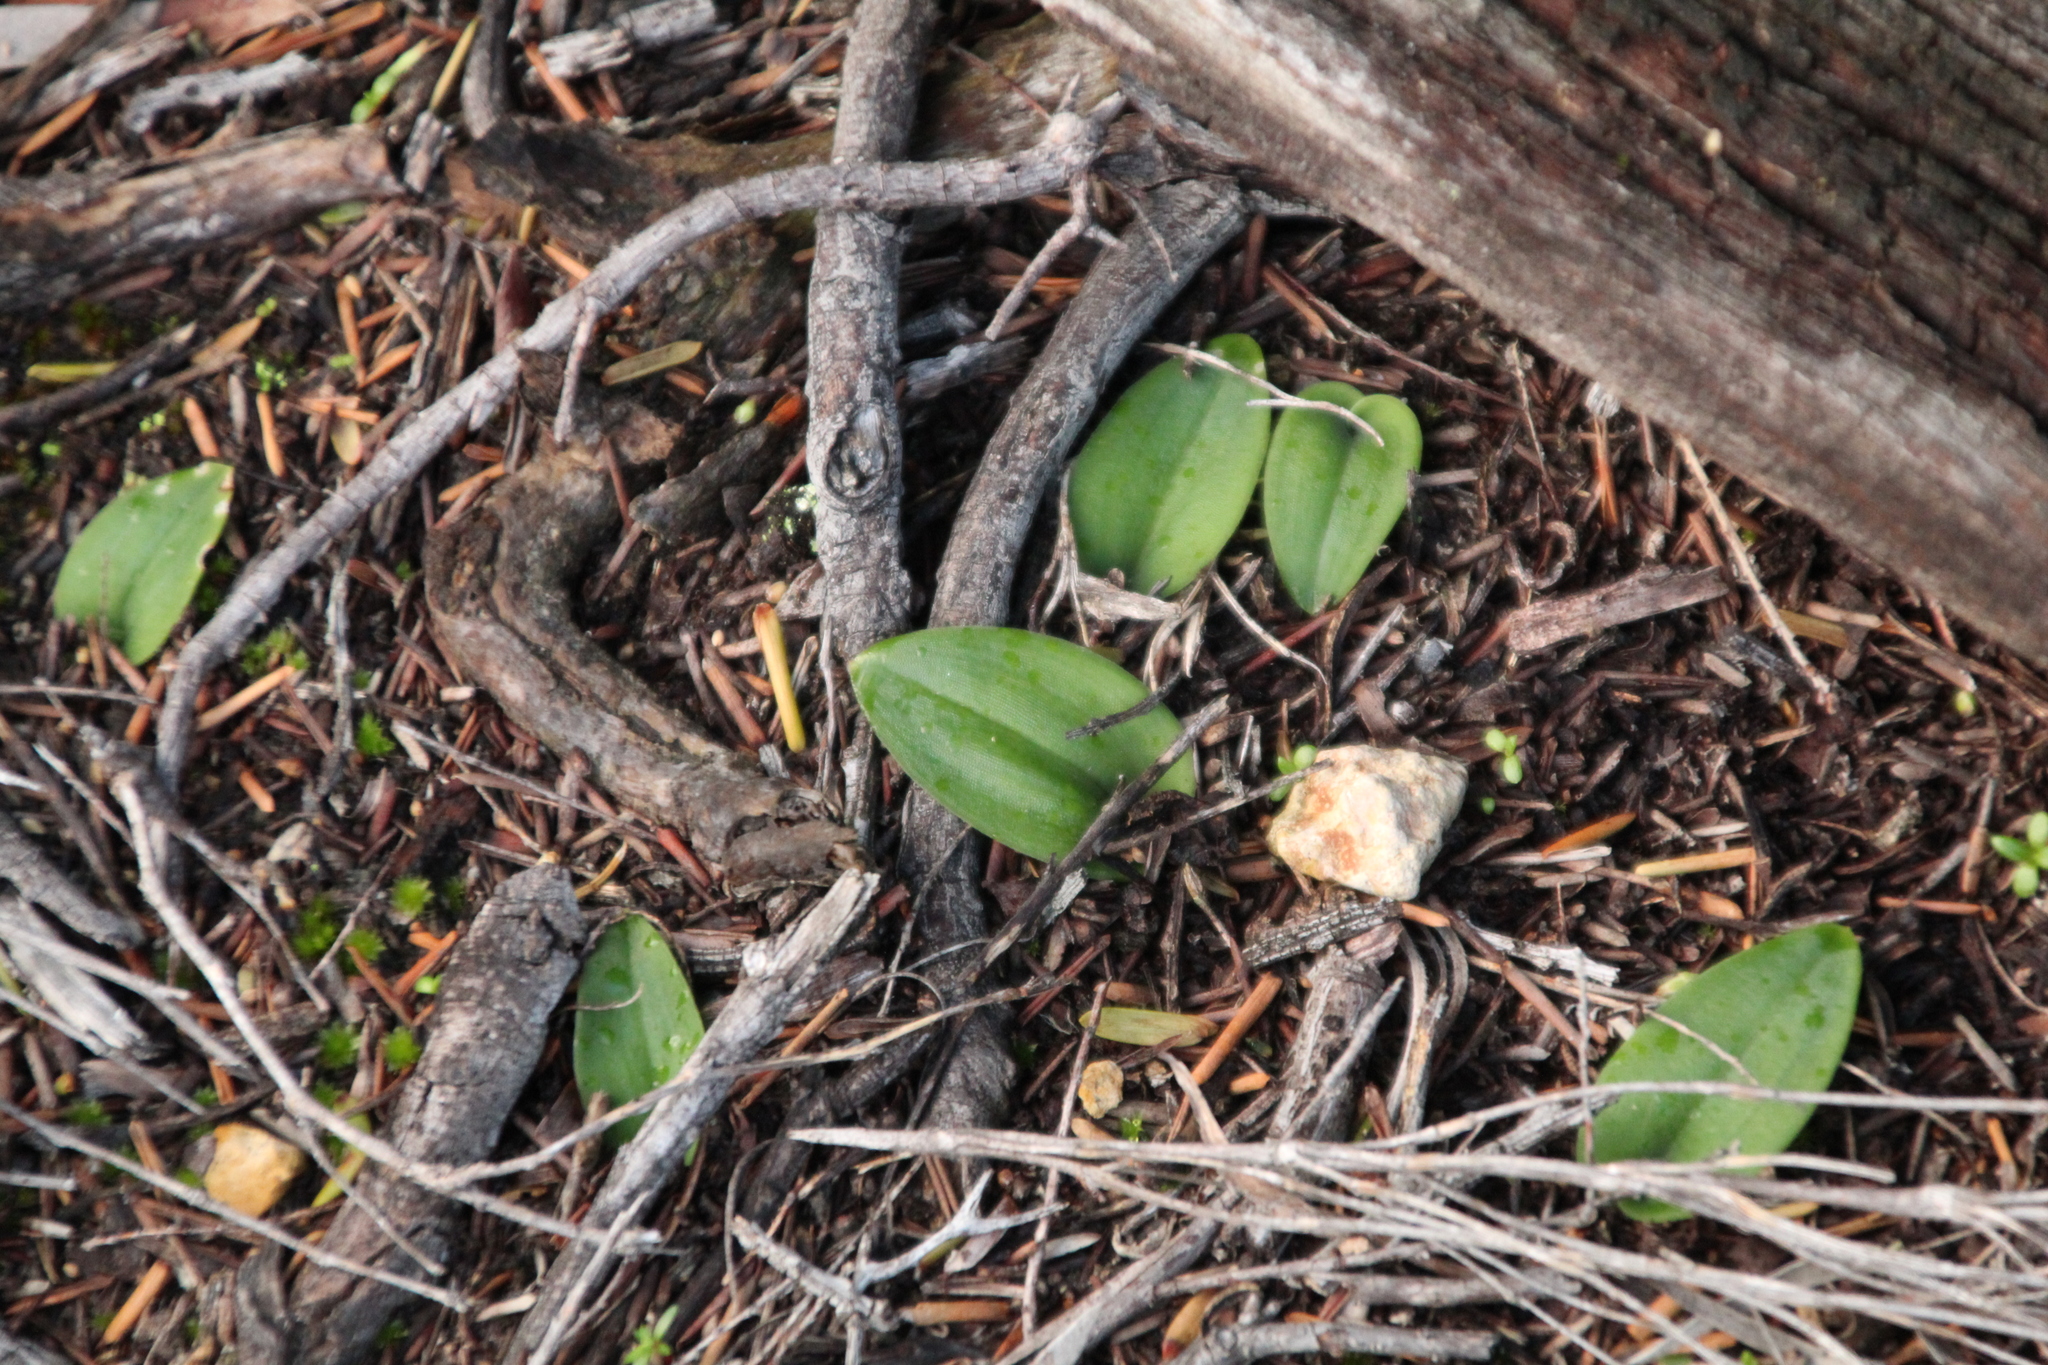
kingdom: Plantae
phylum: Tracheophyta
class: Liliopsida
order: Asparagales
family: Orchidaceae
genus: Leptoceras
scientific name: Leptoceras menziesii
